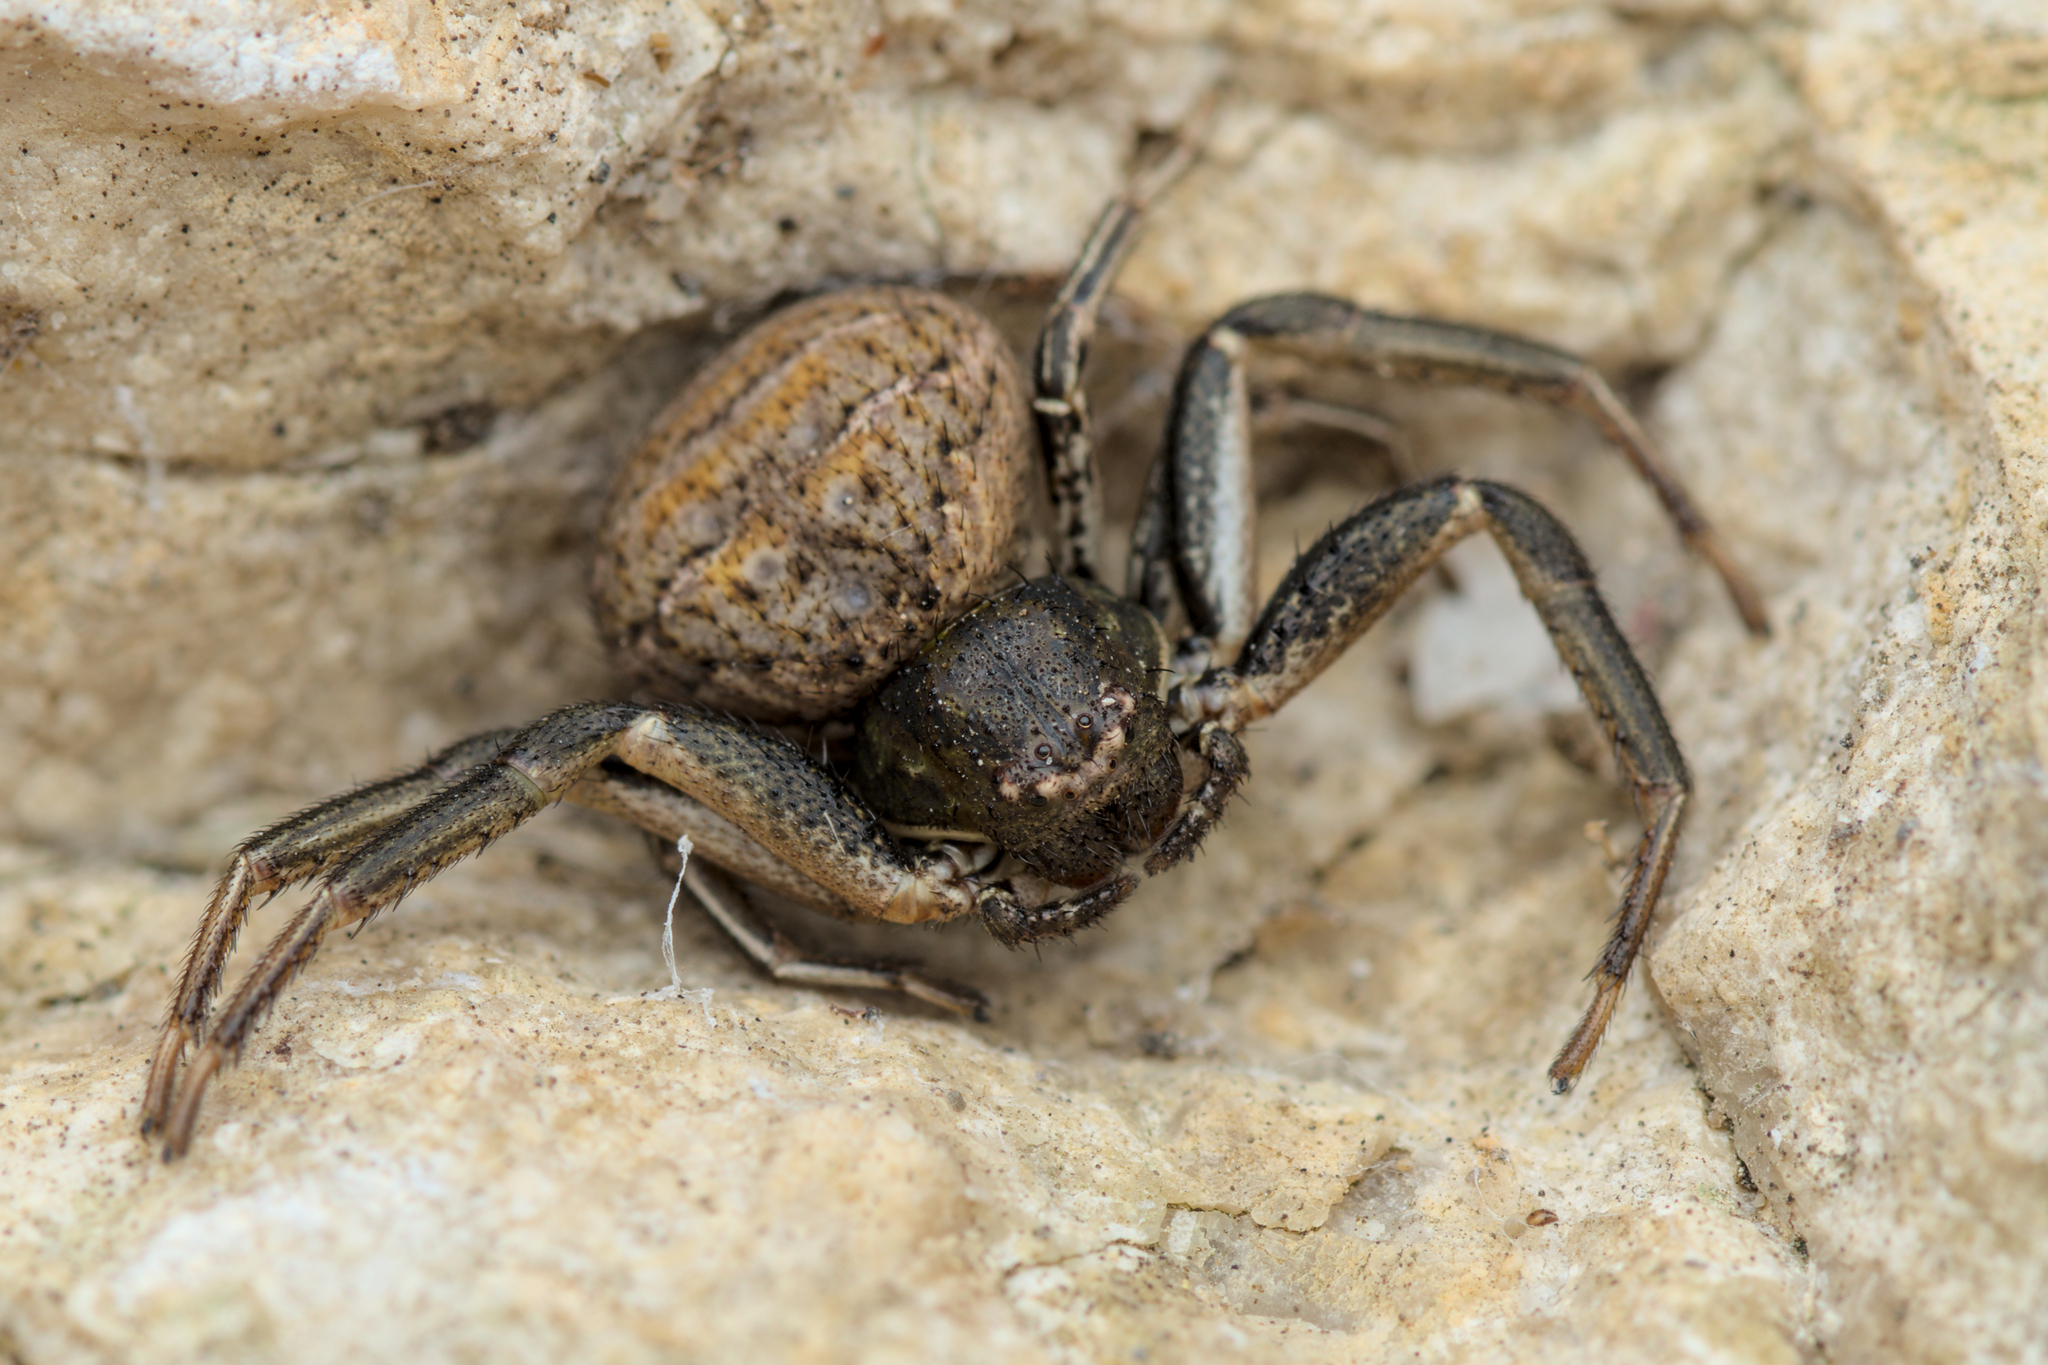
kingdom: Animalia
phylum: Arthropoda
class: Arachnida
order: Araneae
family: Thomisidae
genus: Bassaniodes
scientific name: Bassaniodes bufo
